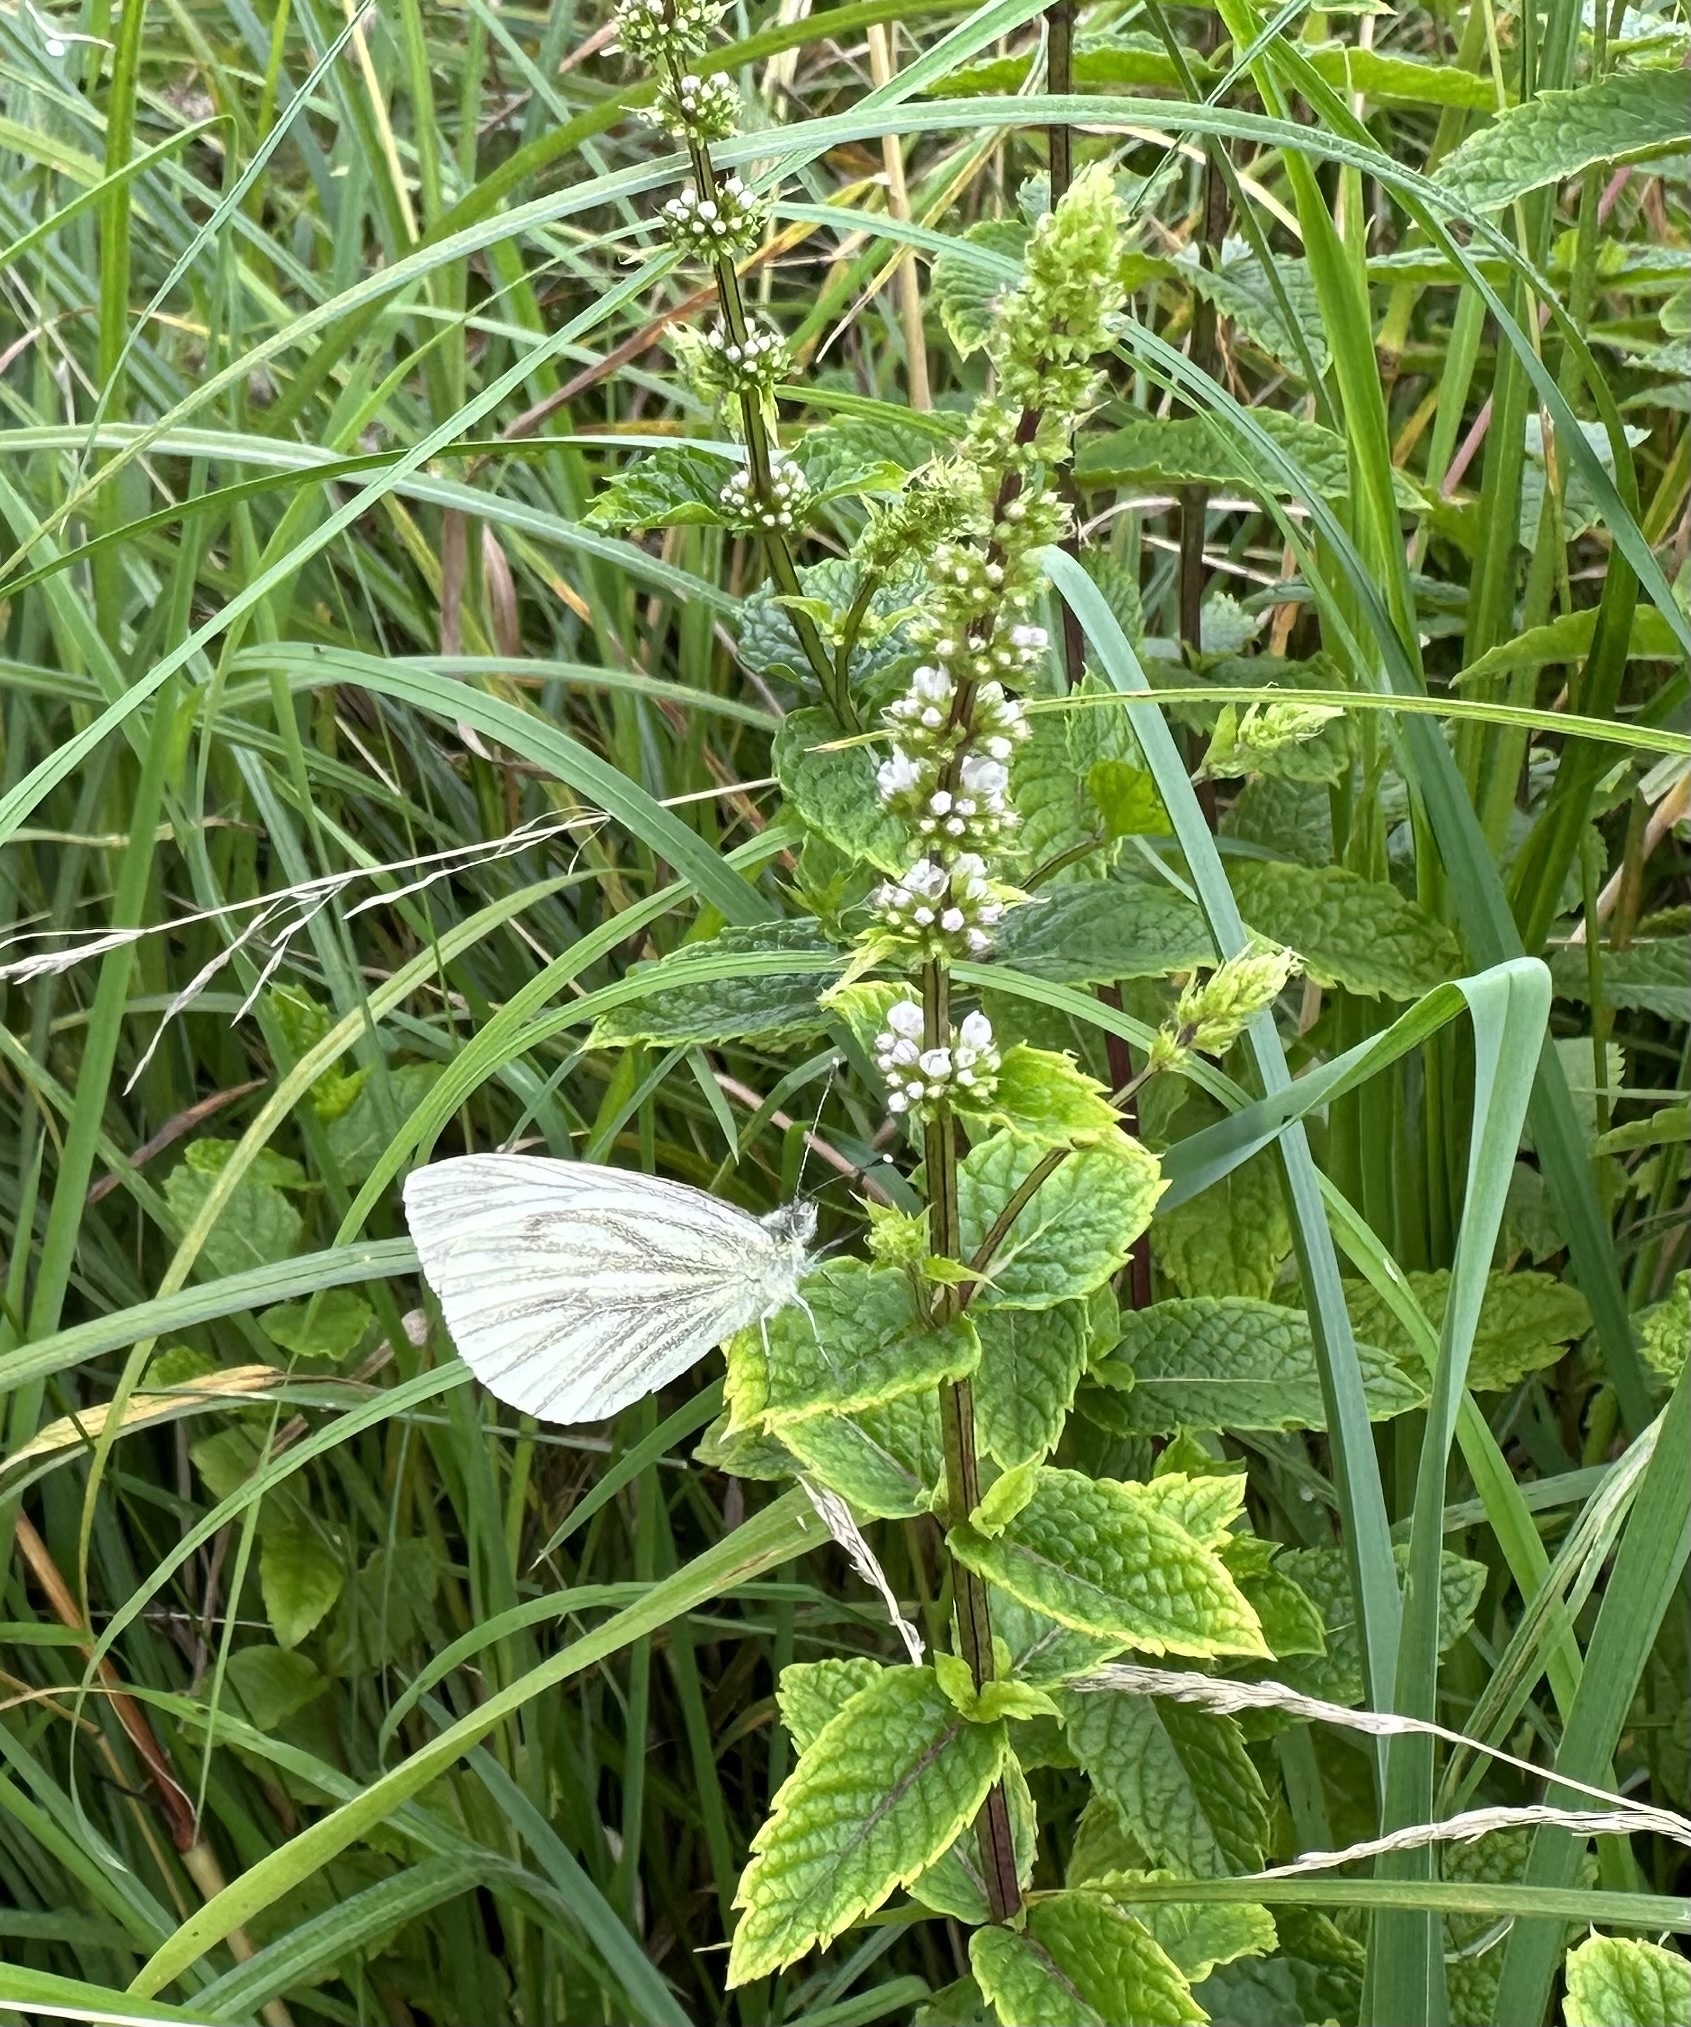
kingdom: Animalia
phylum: Arthropoda
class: Insecta
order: Lepidoptera
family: Pieridae
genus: Pieris
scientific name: Pieris napi
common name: Green-veined white
